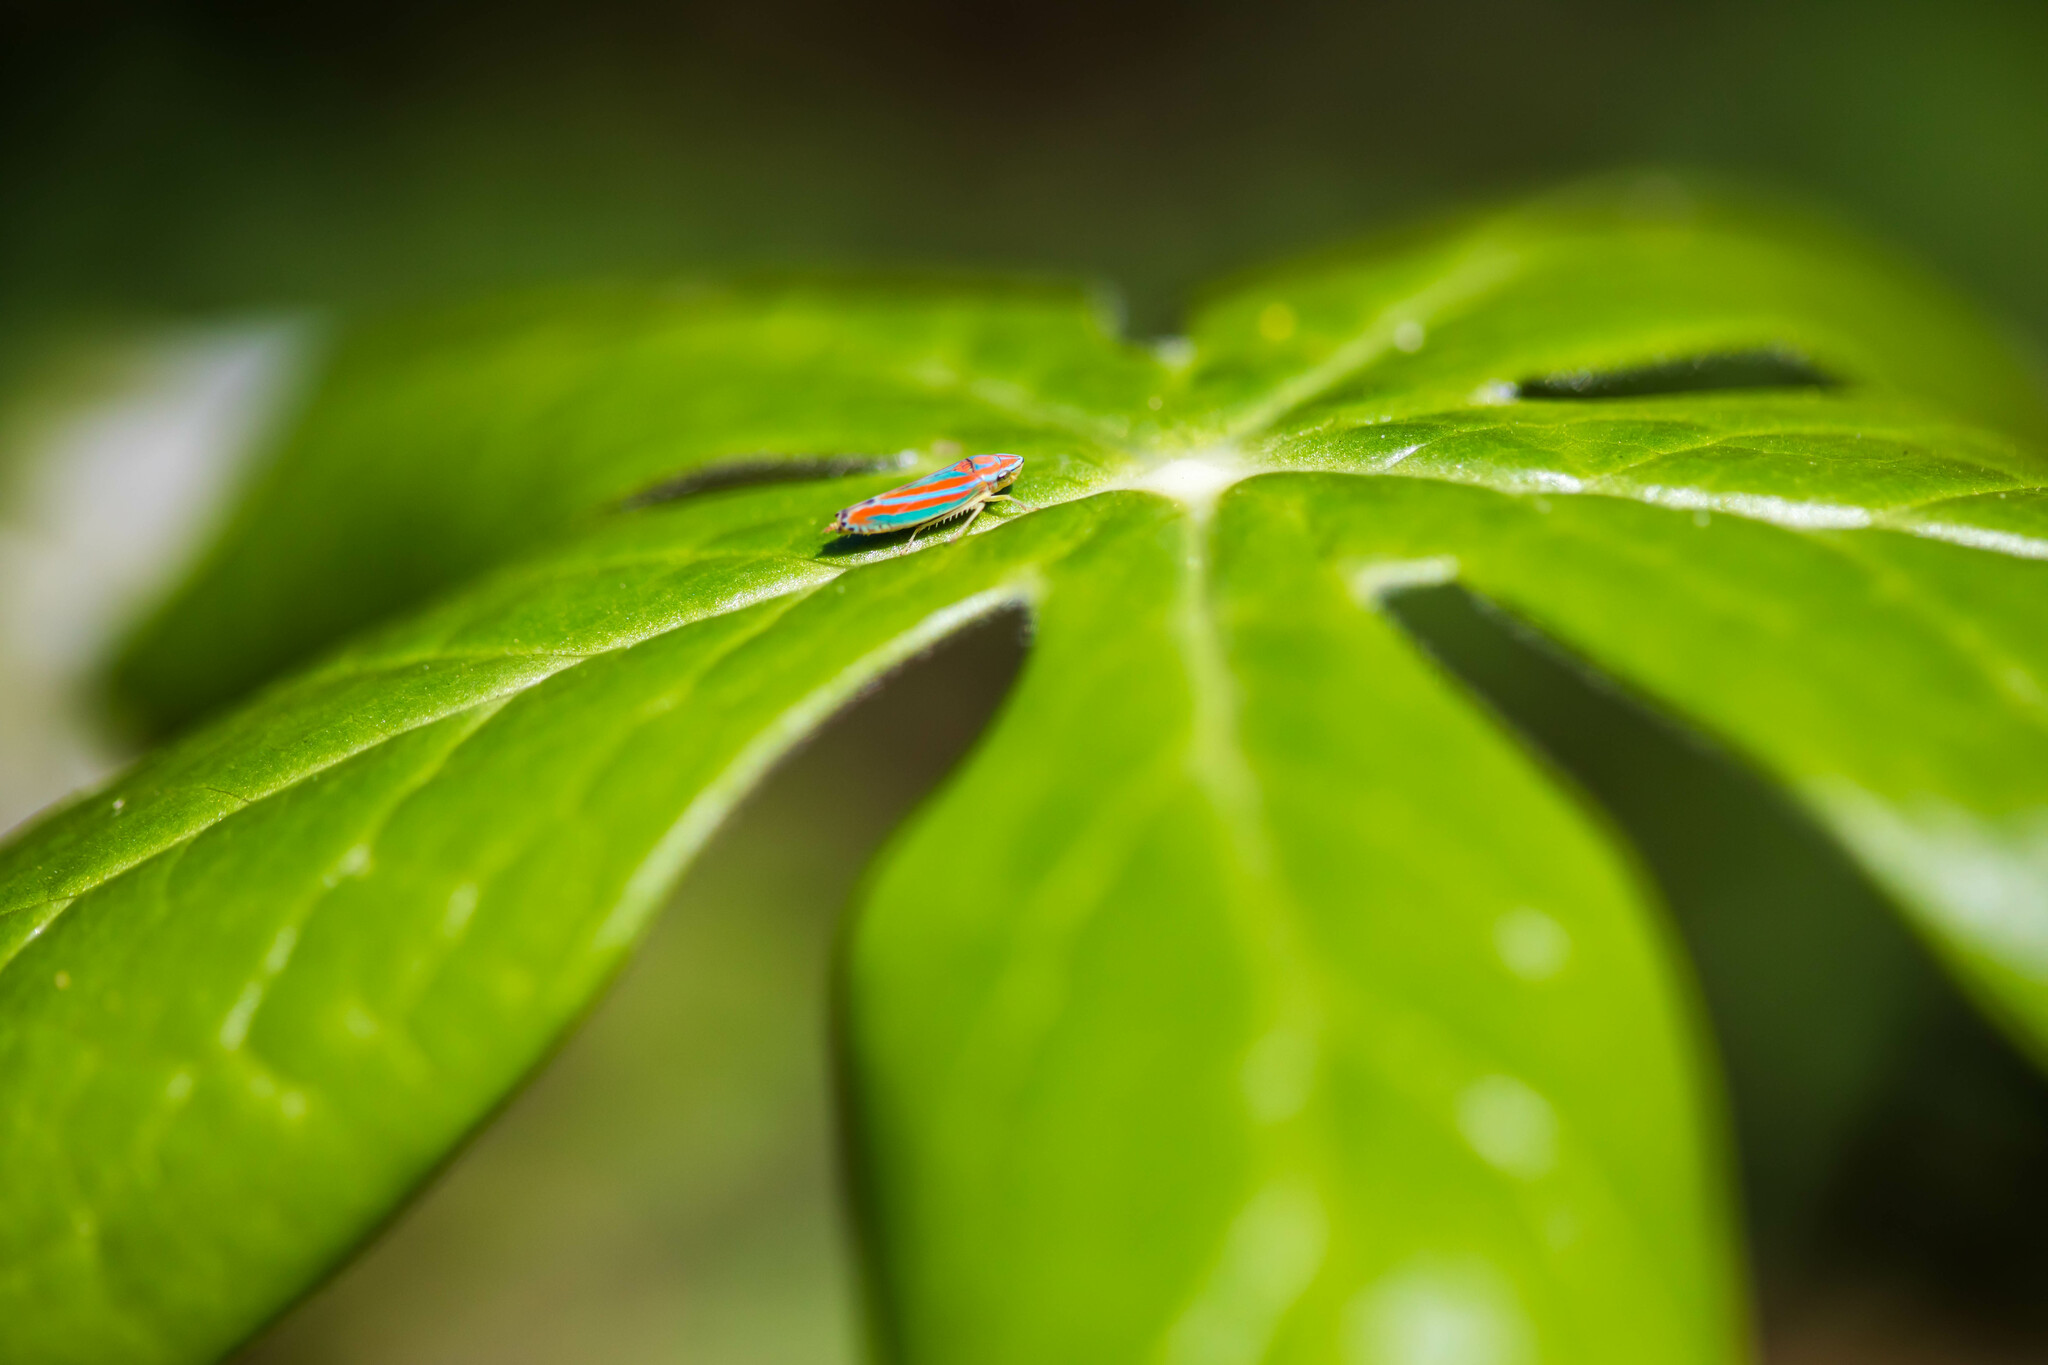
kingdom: Animalia
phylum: Arthropoda
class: Insecta
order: Hemiptera
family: Cicadellidae
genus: Graphocephala
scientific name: Graphocephala versuta
